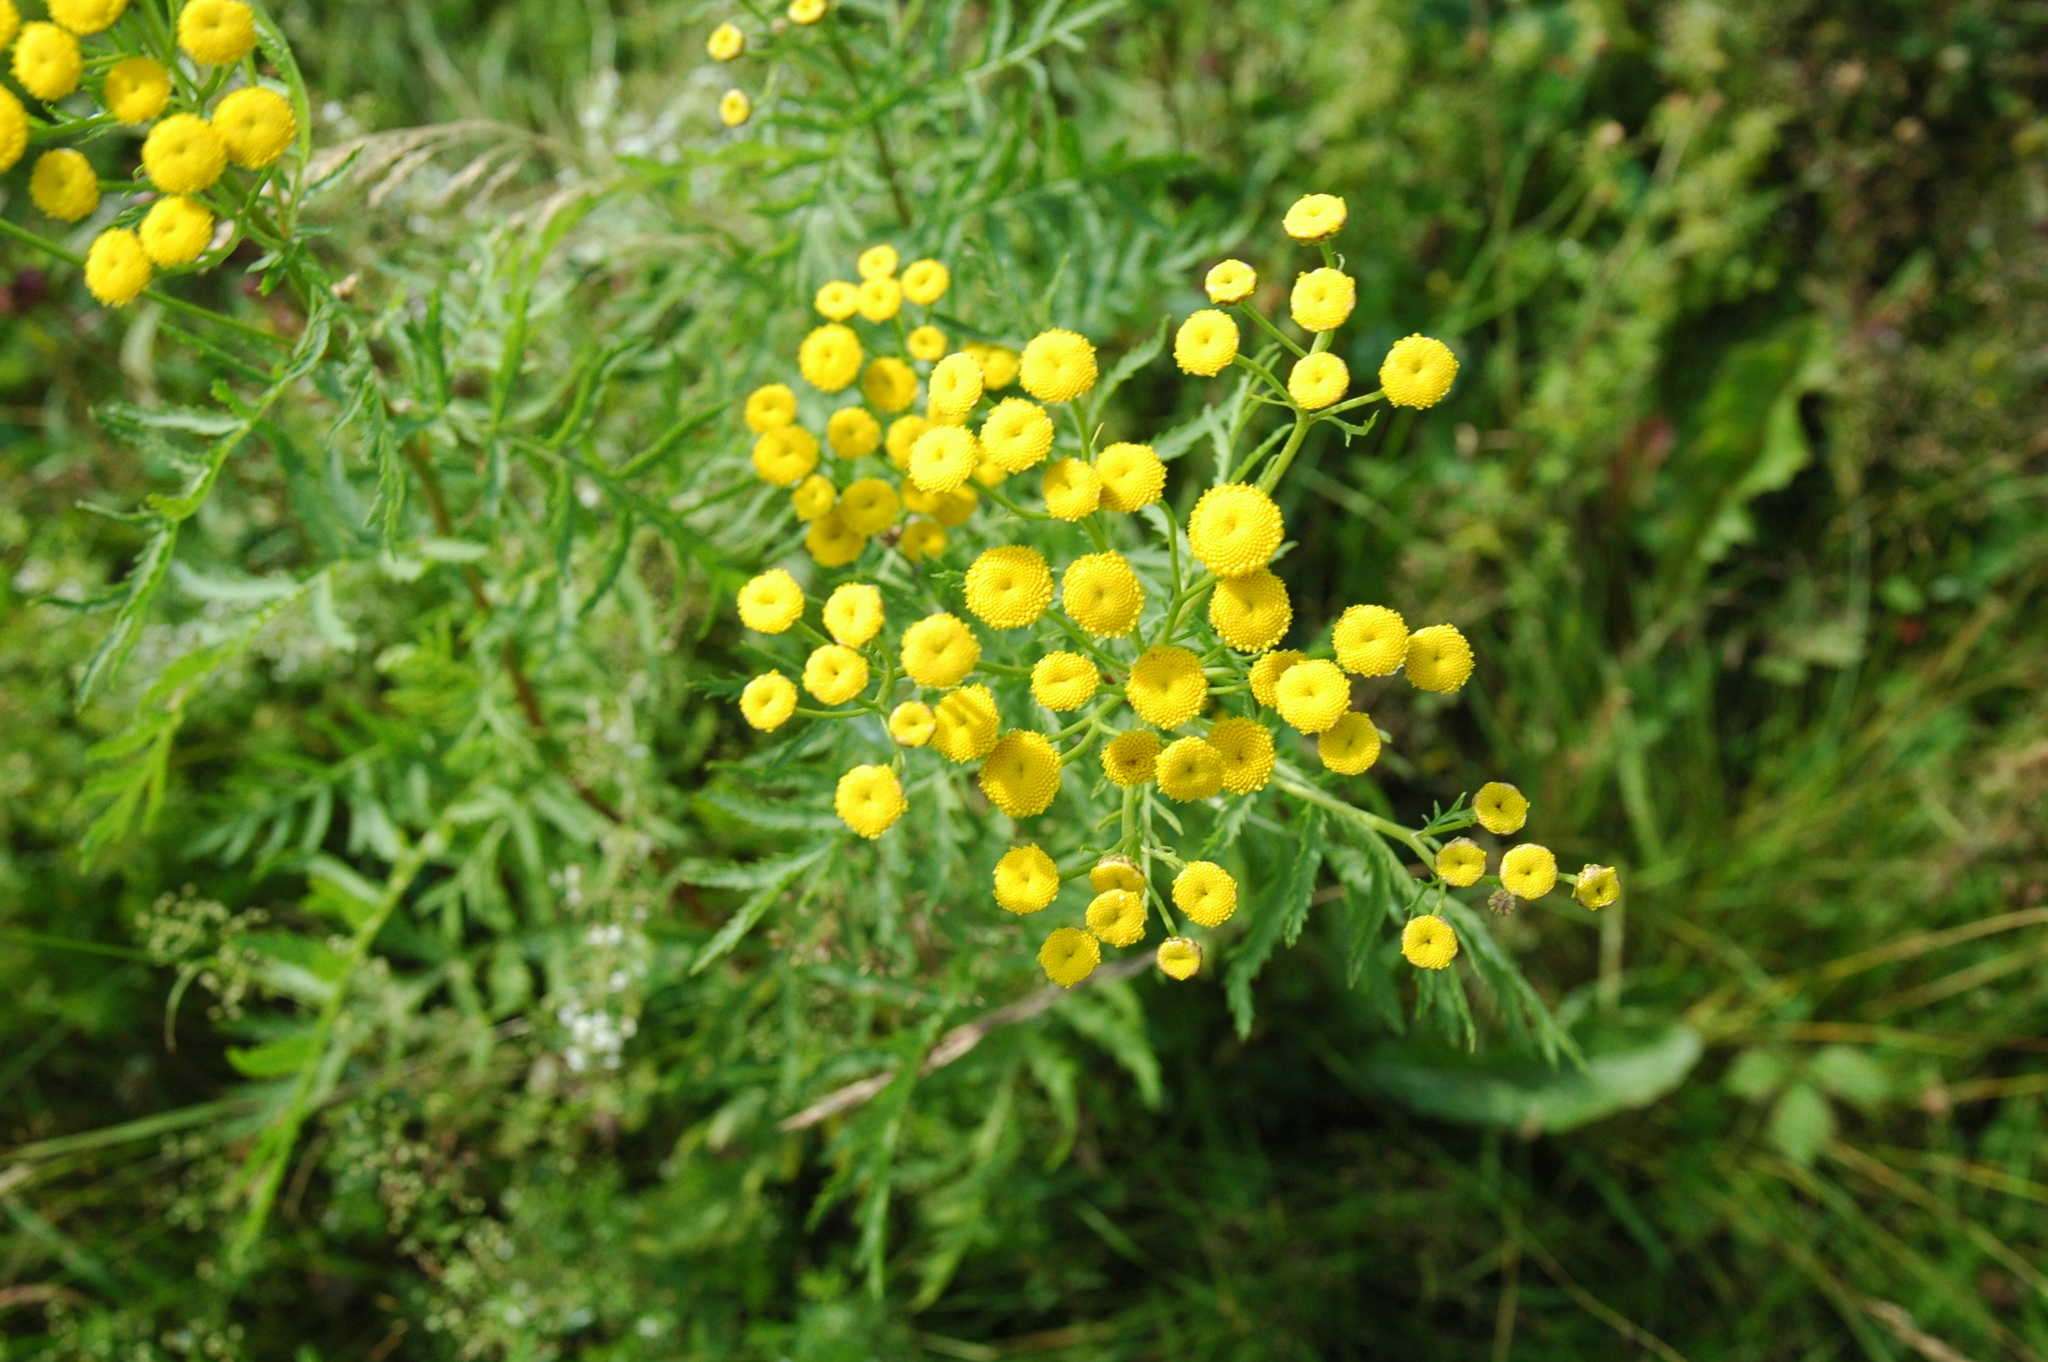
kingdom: Plantae
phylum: Tracheophyta
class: Magnoliopsida
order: Asterales
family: Asteraceae
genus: Tanacetum
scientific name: Tanacetum vulgare
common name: Common tansy
